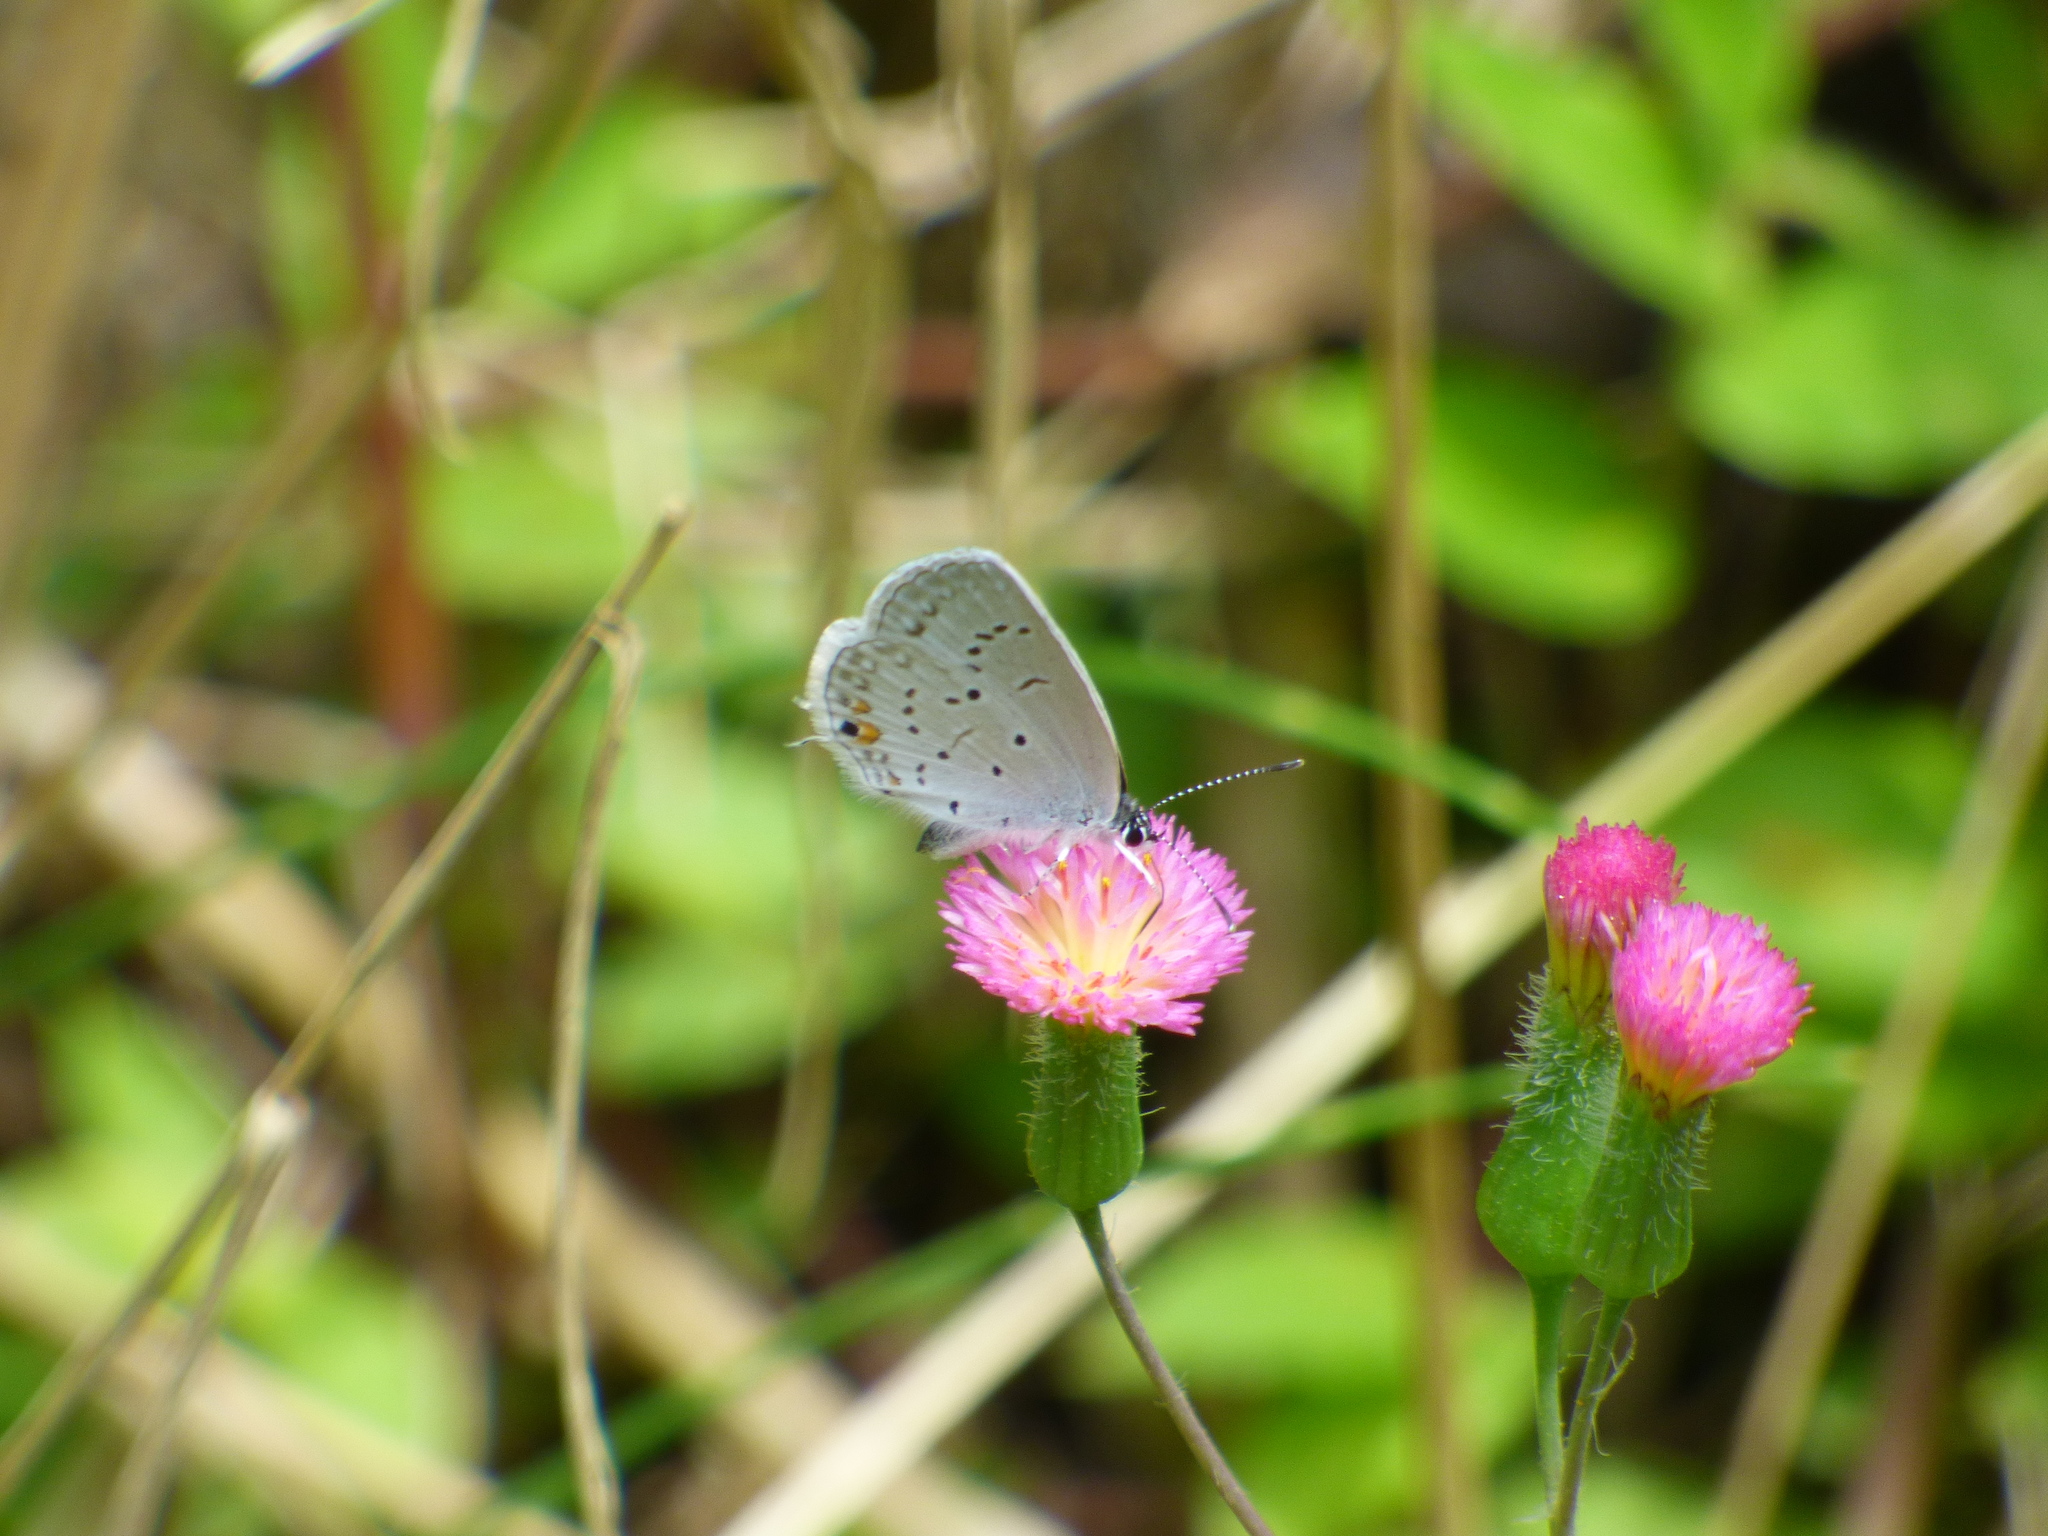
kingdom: Animalia
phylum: Arthropoda
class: Insecta
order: Lepidoptera
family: Lycaenidae
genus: Elkalyce
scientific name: Elkalyce comyntas
